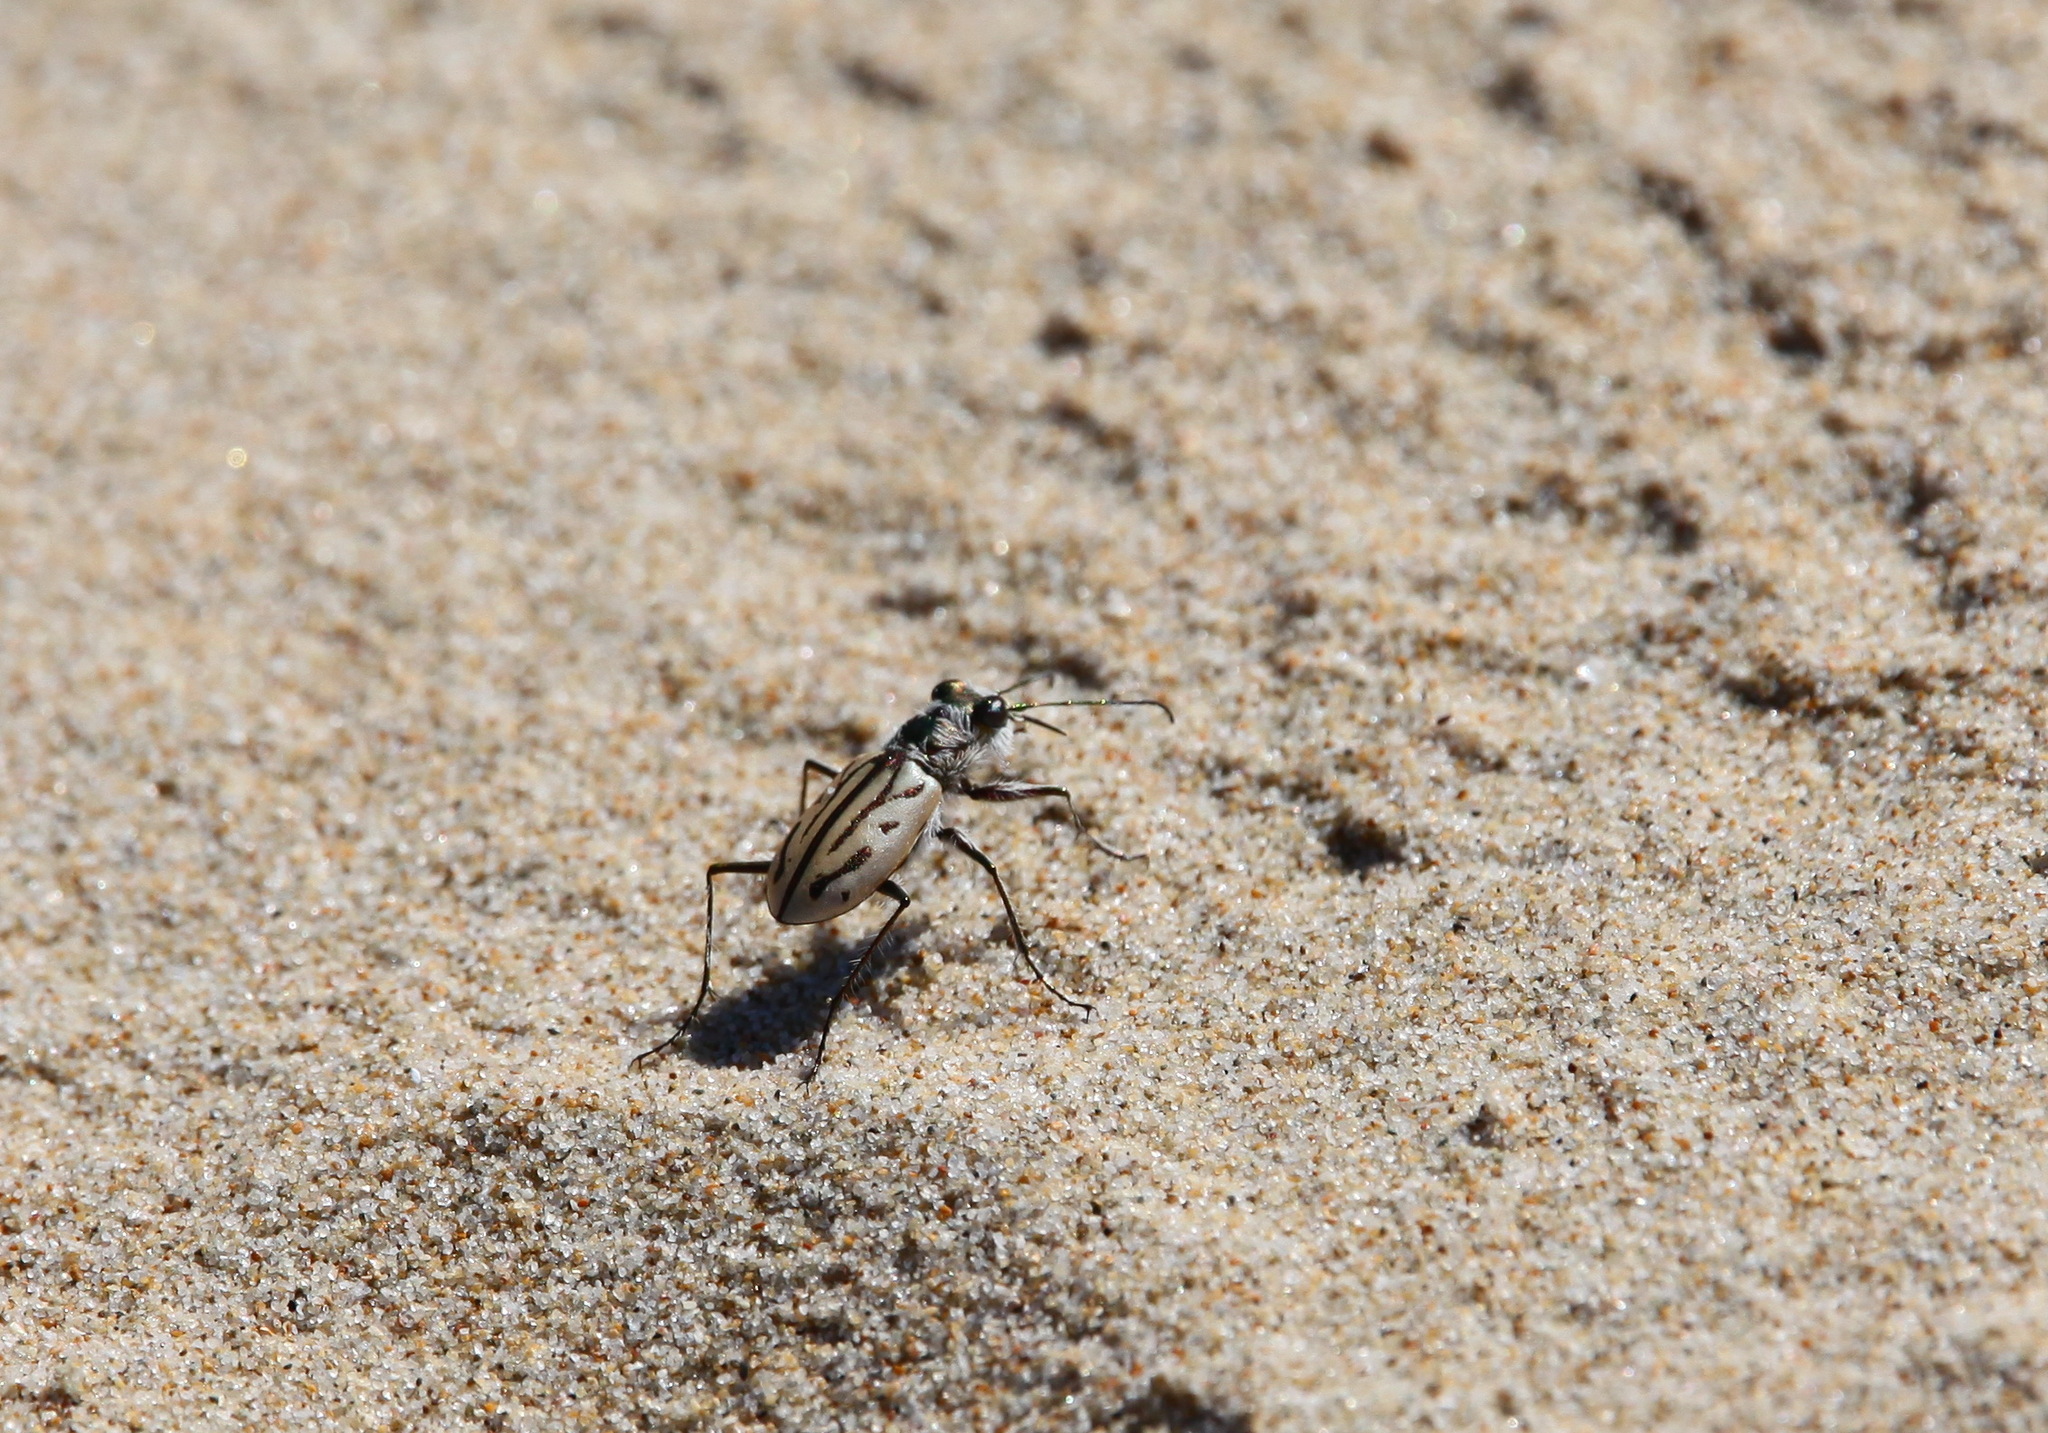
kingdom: Animalia
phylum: Arthropoda
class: Insecta
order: Coleoptera
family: Carabidae
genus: Habrodera
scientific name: Habrodera capensis
